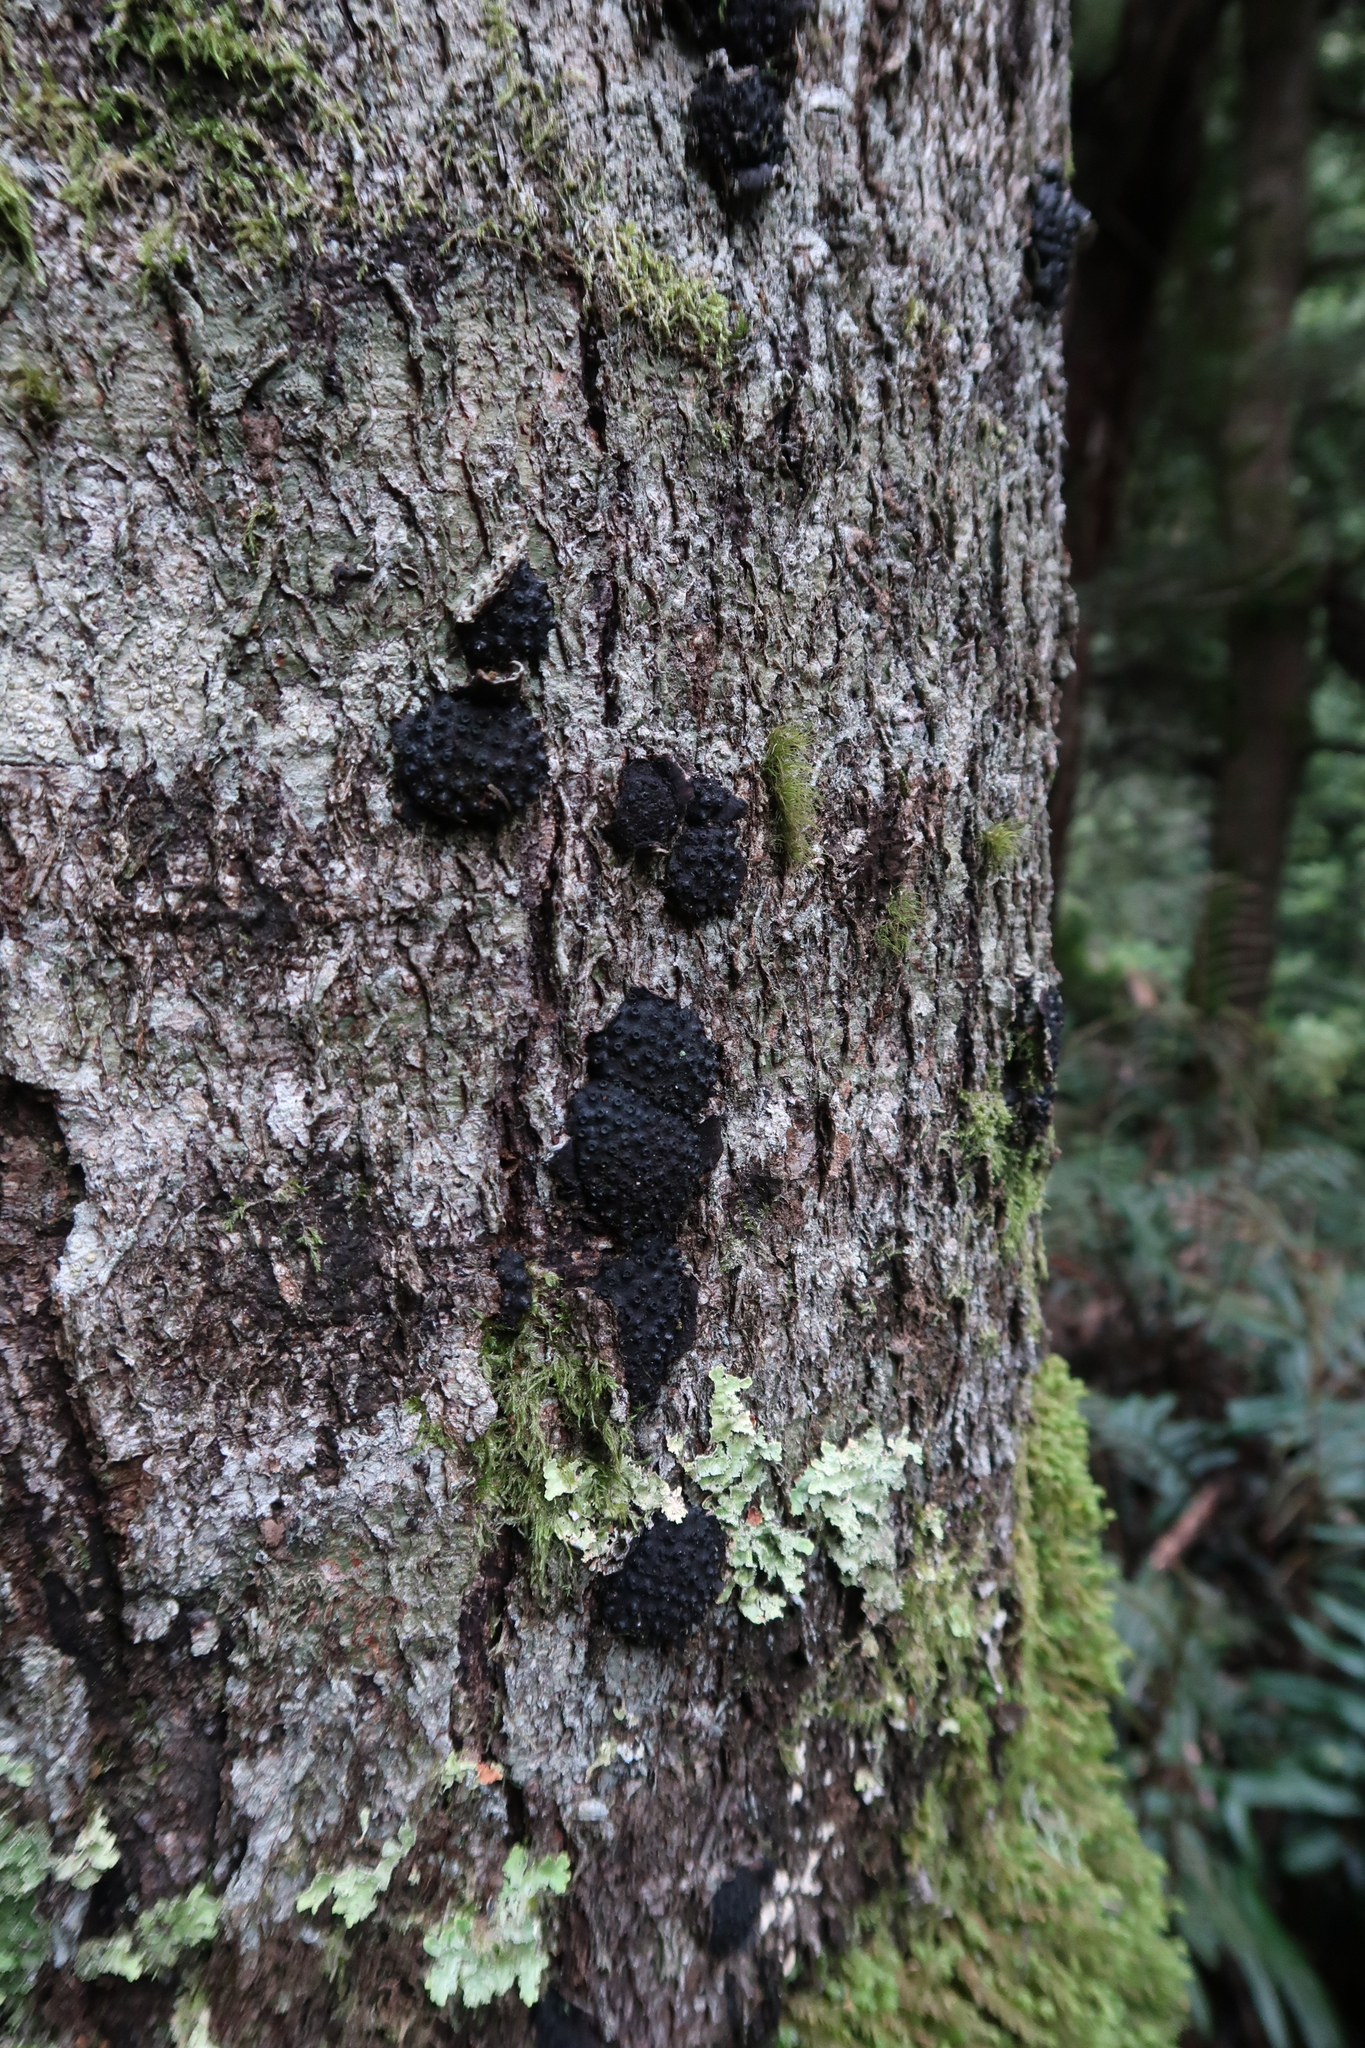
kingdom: Fungi
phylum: Ascomycota
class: Sordariomycetes
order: Xylariales
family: Hypoxylaceae
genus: Annulohypoxylon
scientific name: Annulohypoxylon hians
